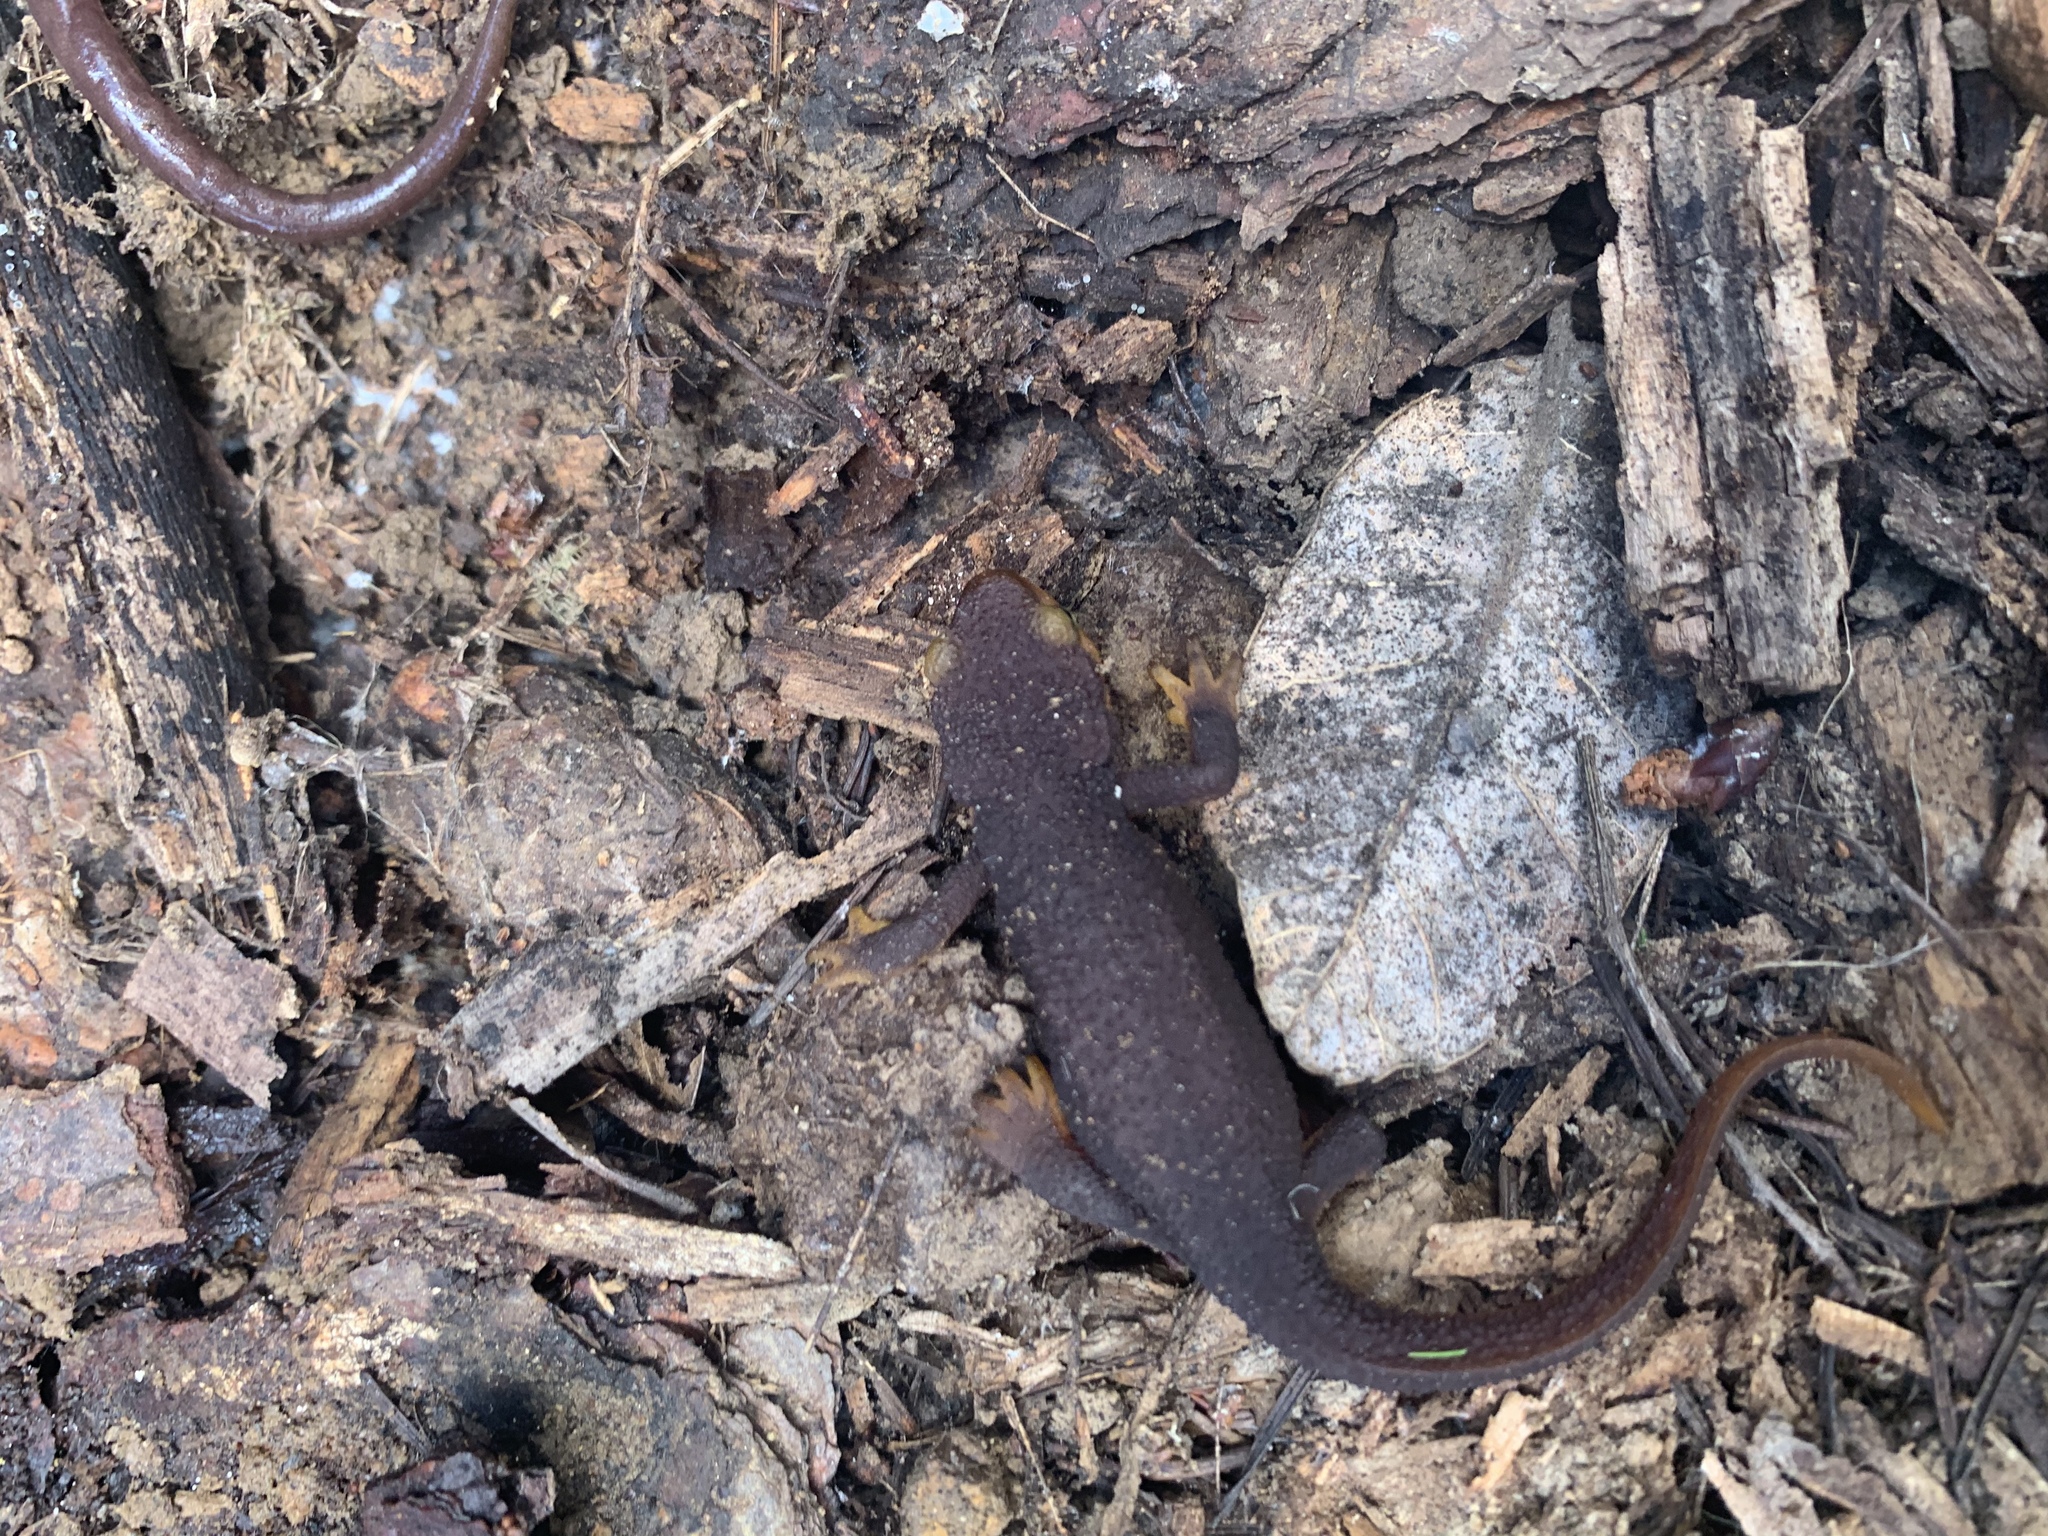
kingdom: Animalia
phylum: Chordata
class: Amphibia
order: Caudata
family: Salamandridae
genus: Taricha
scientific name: Taricha torosa
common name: California newt
